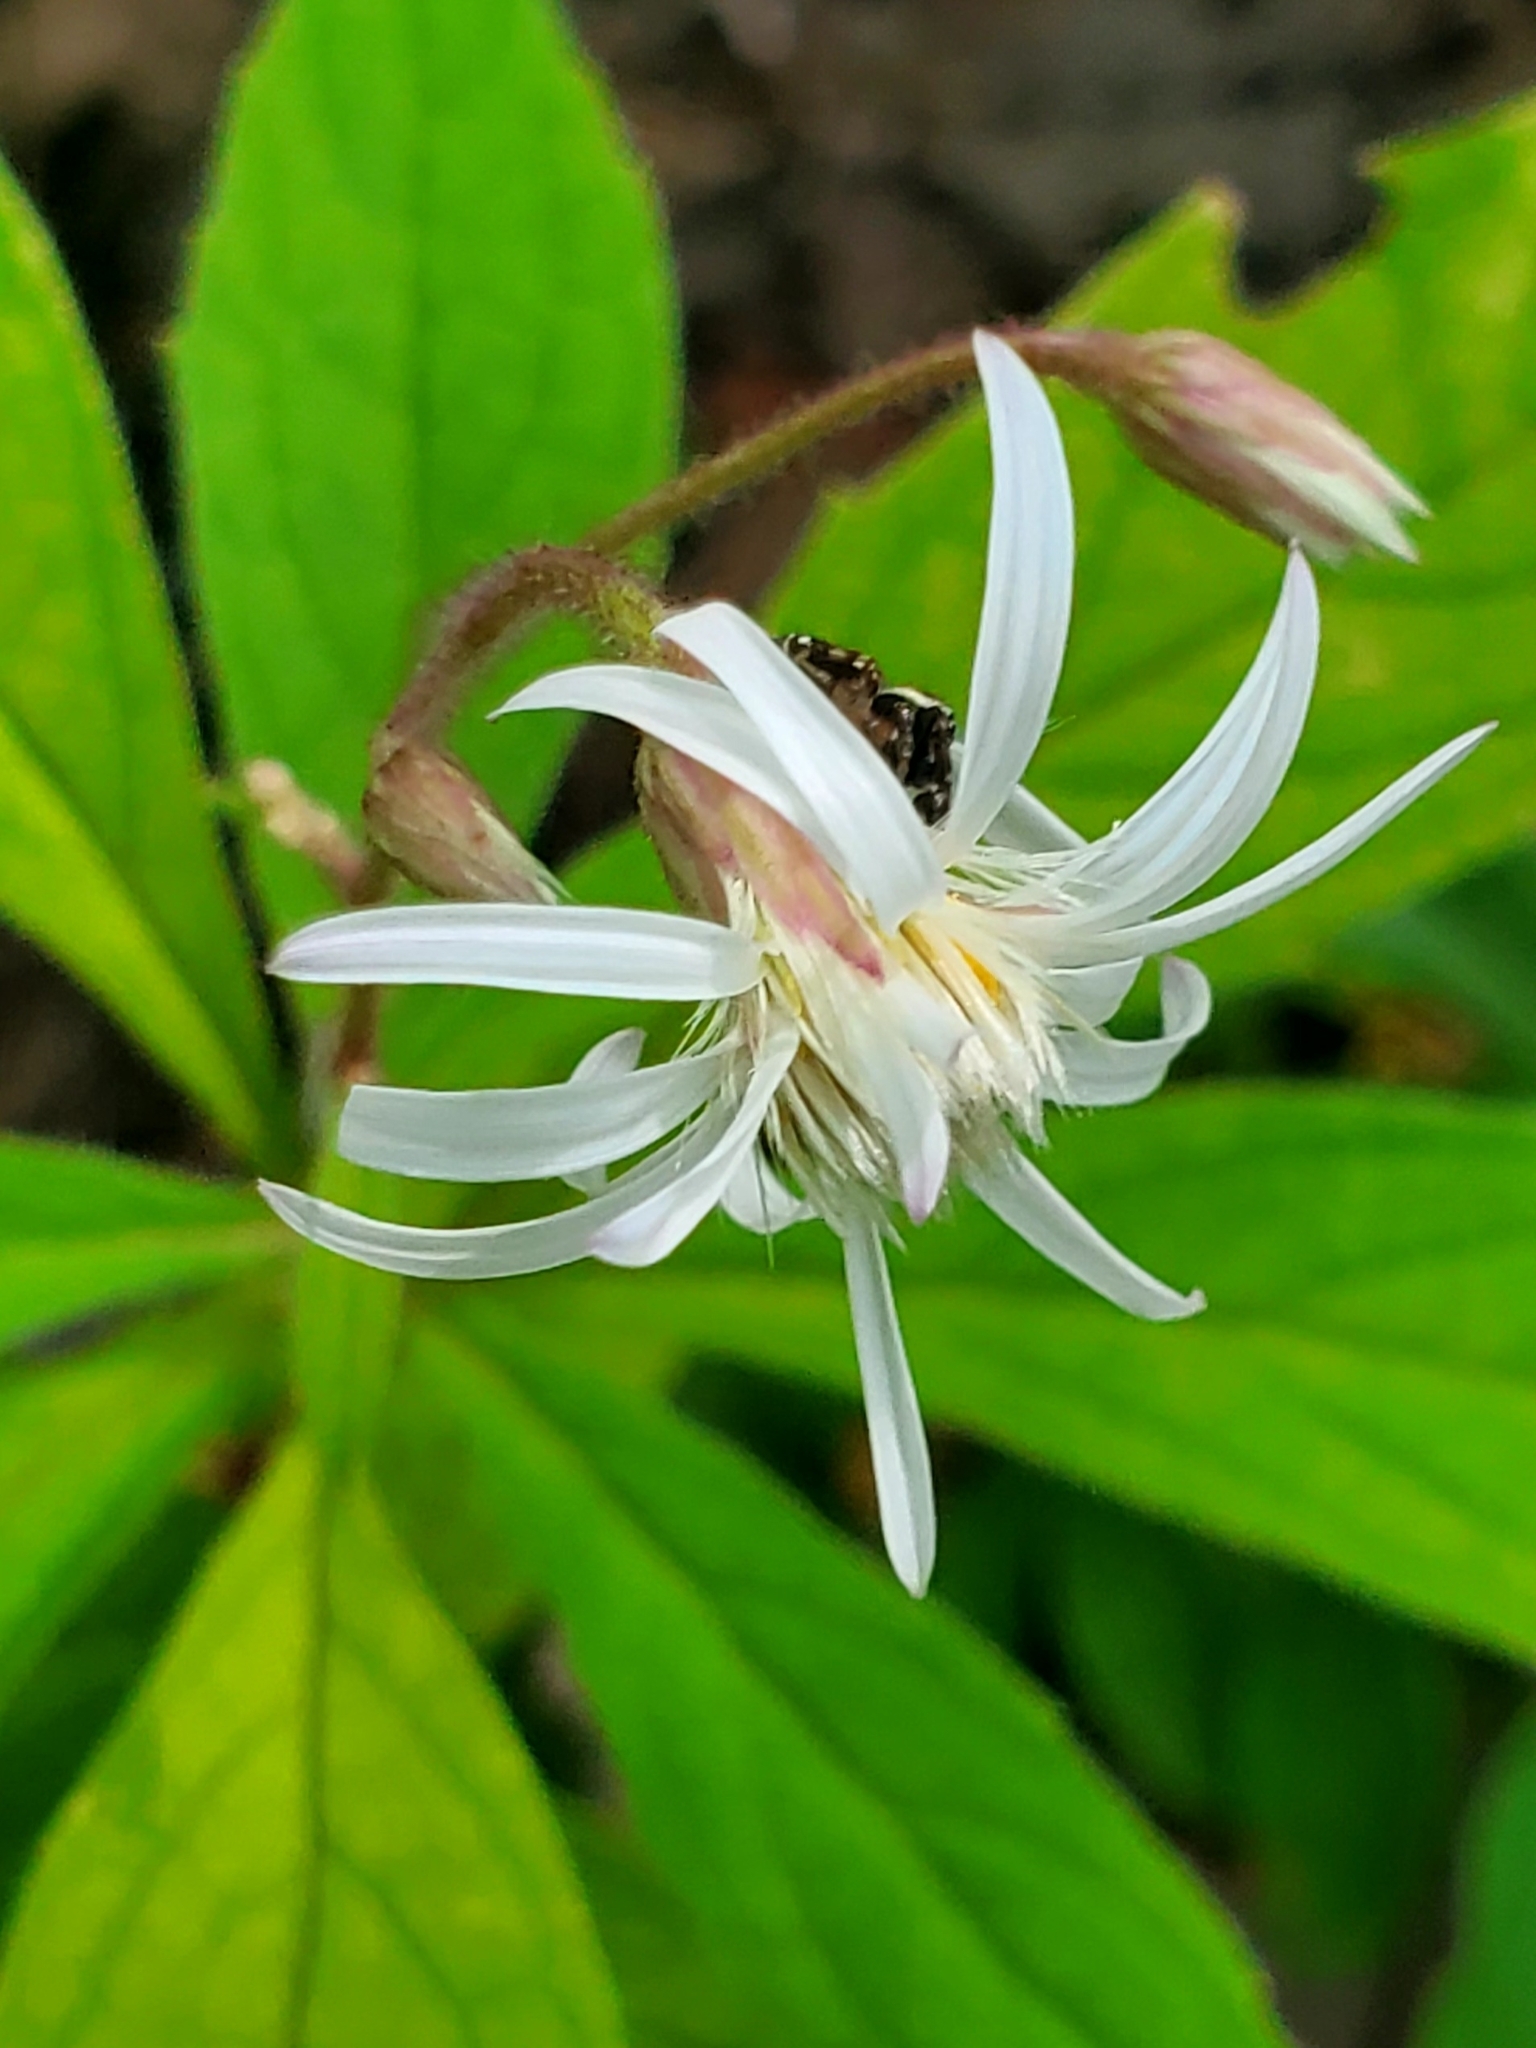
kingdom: Plantae
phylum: Tracheophyta
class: Magnoliopsida
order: Asterales
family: Asteraceae
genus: Oclemena
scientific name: Oclemena acuminata
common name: Mountain aster
